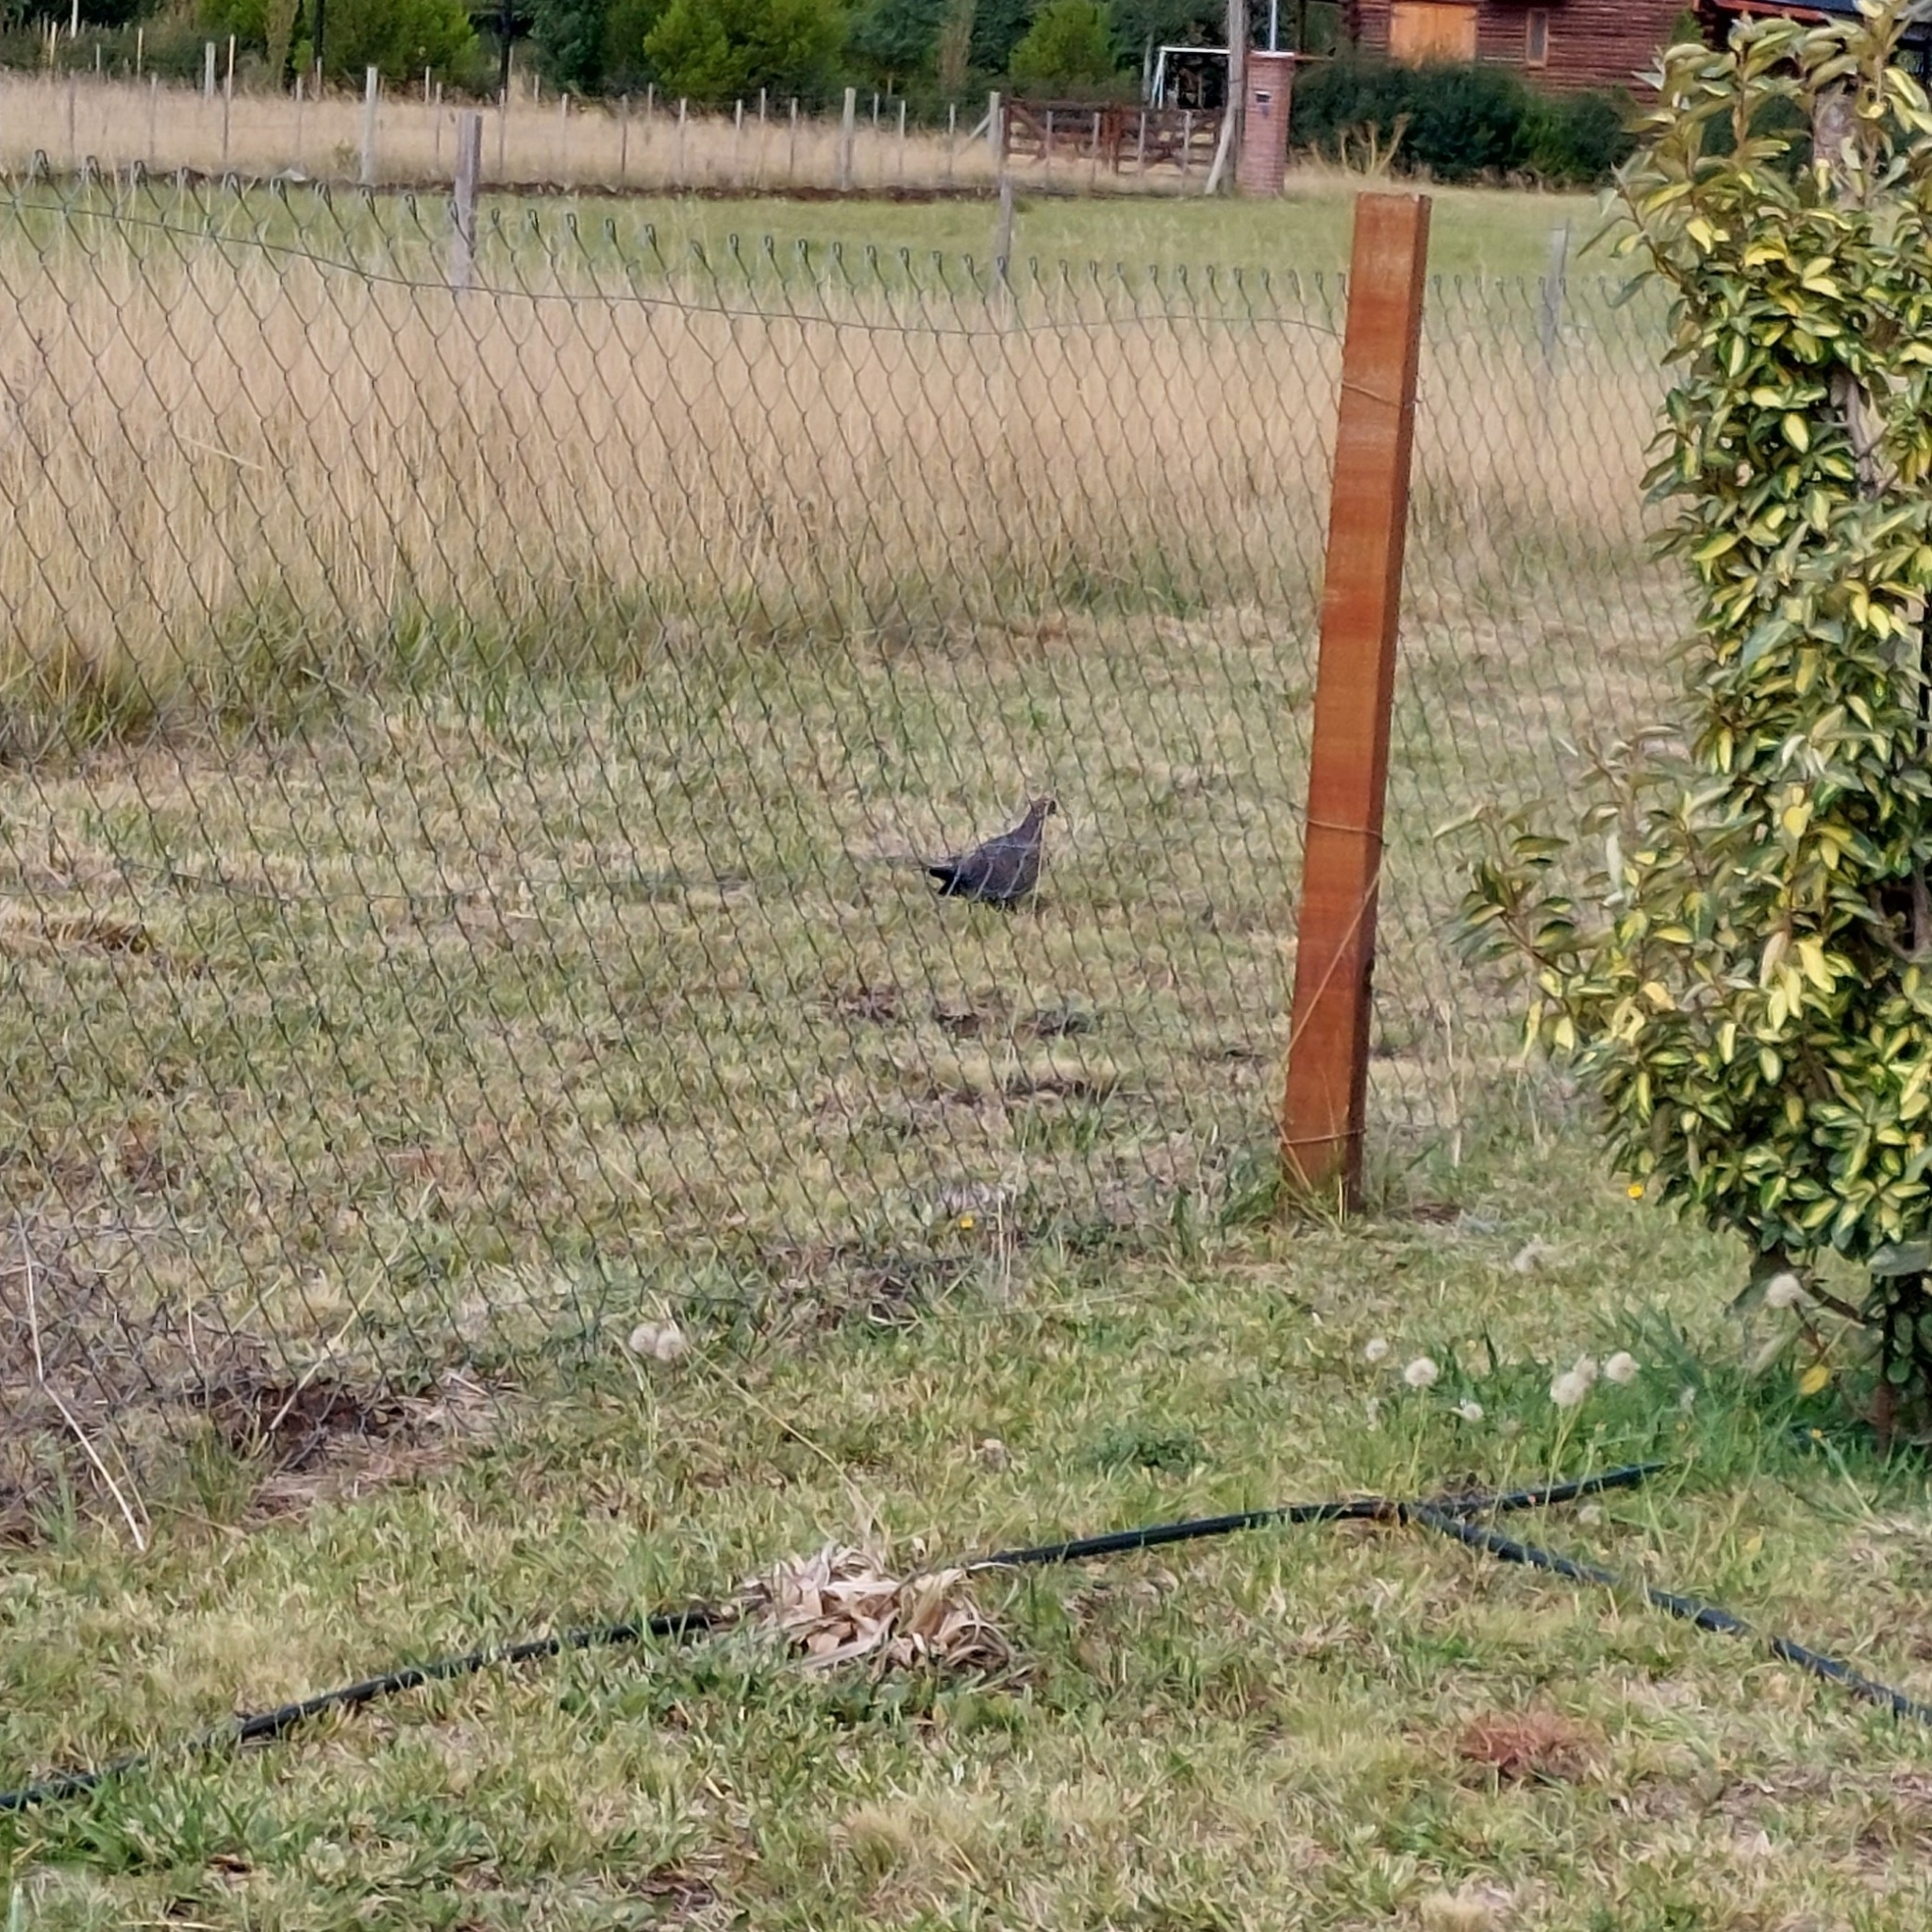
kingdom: Animalia
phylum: Chordata
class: Aves
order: Columbiformes
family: Columbidae
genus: Patagioenas
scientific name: Patagioenas picazuro
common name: Picazuro pigeon
